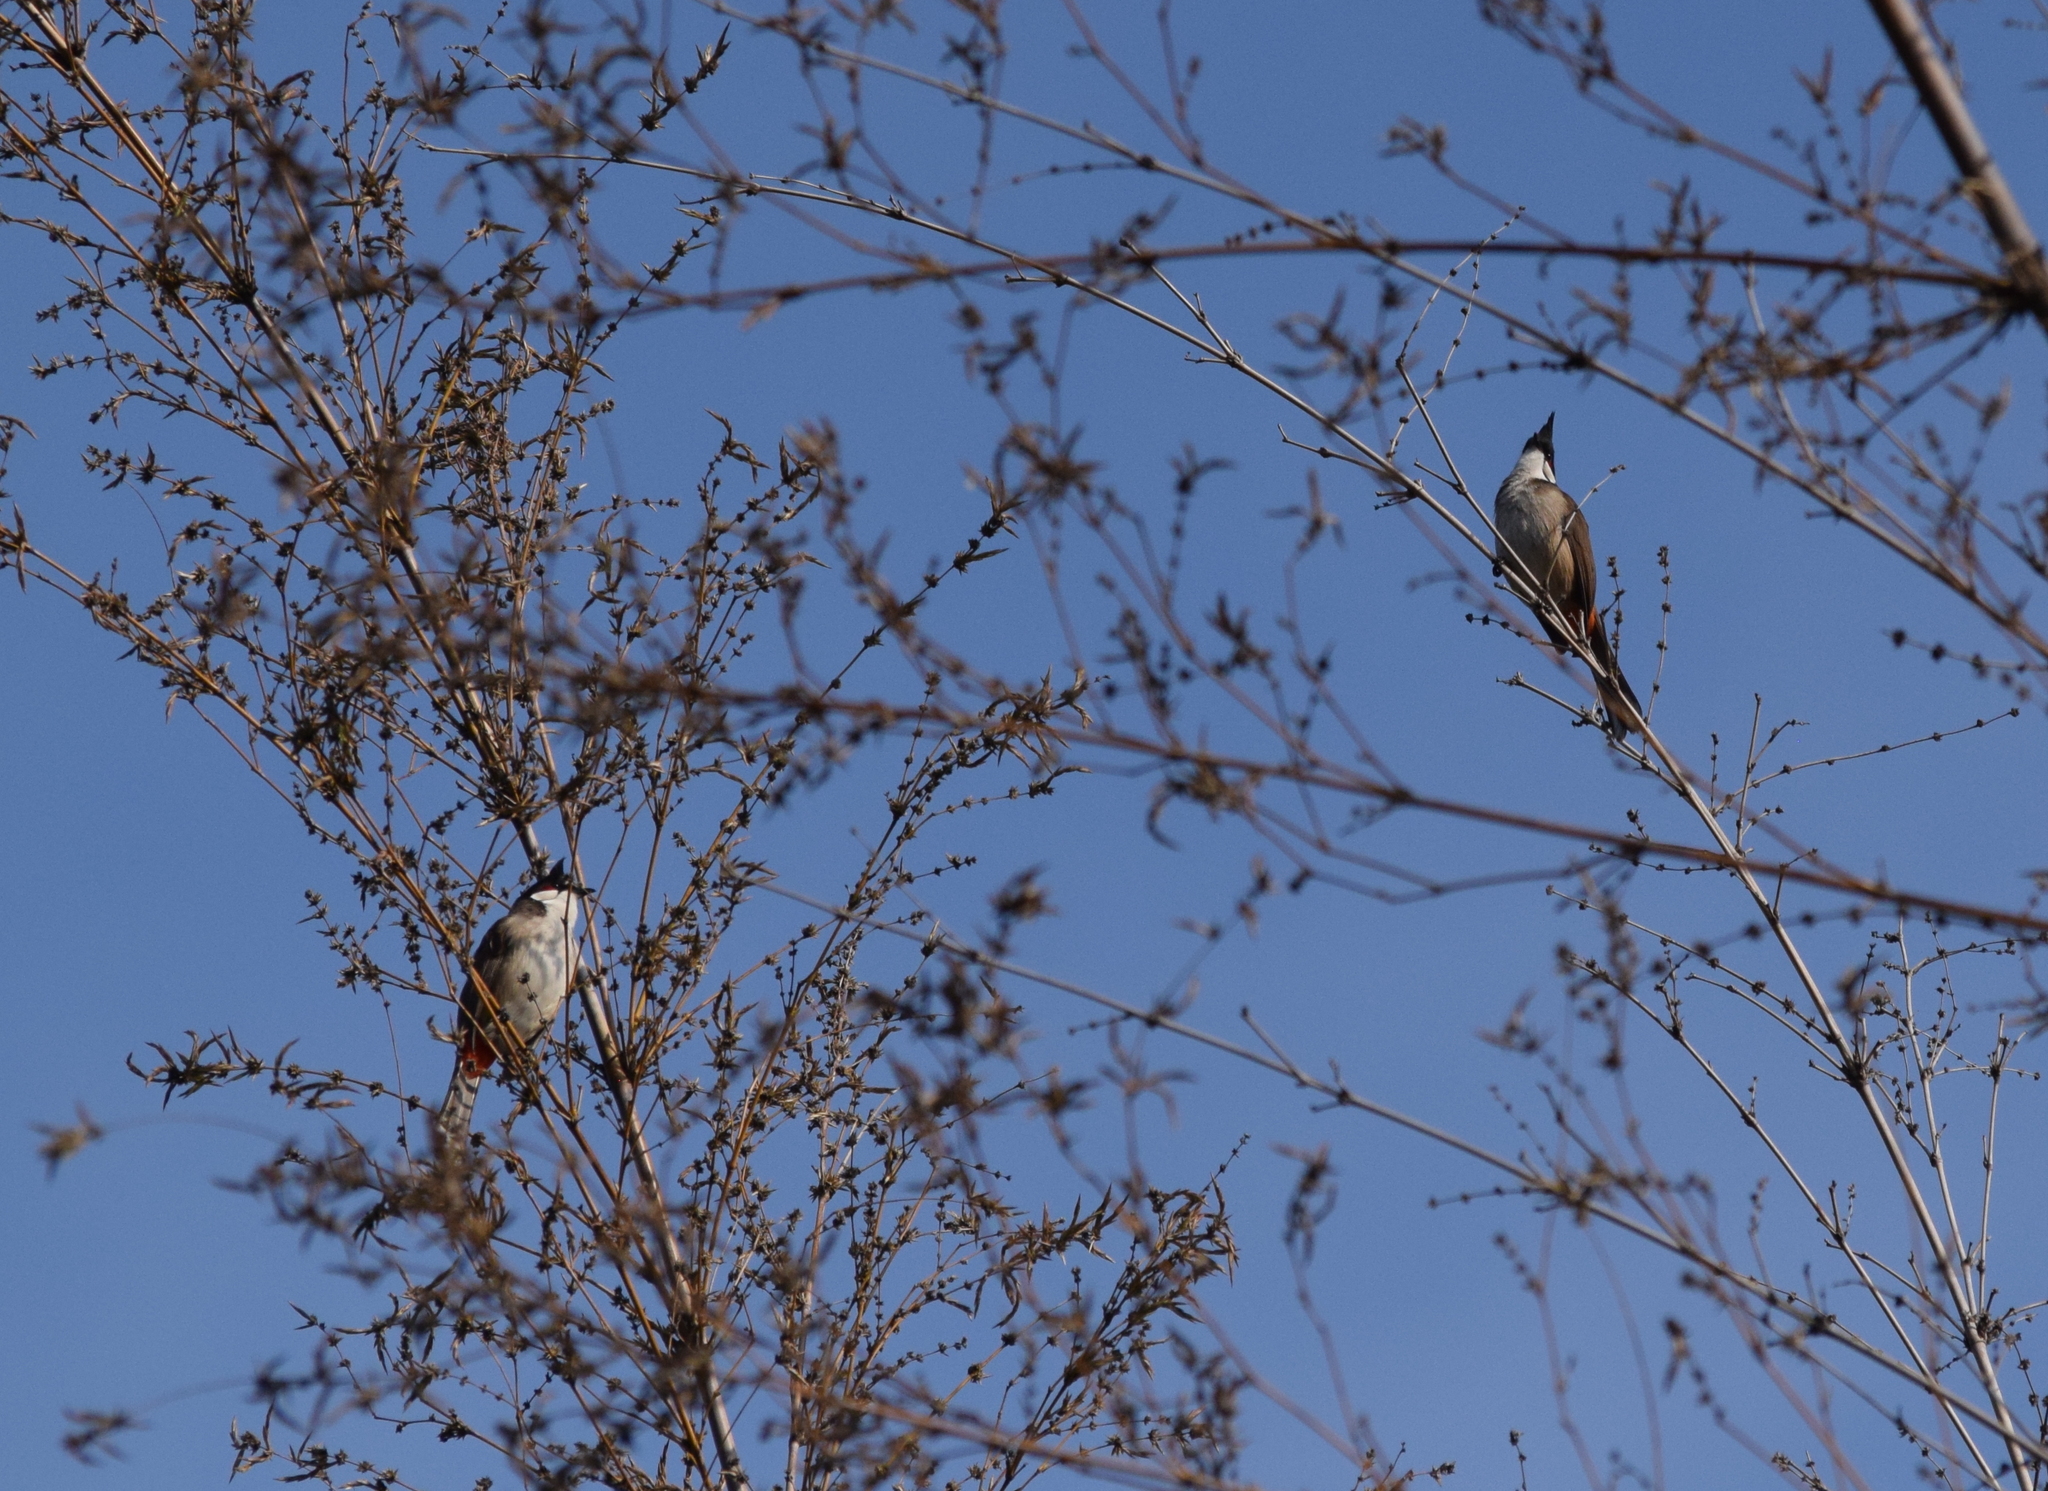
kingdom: Animalia
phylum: Chordata
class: Aves
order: Passeriformes
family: Pycnonotidae
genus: Pycnonotus
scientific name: Pycnonotus jocosus
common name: Red-whiskered bulbul
